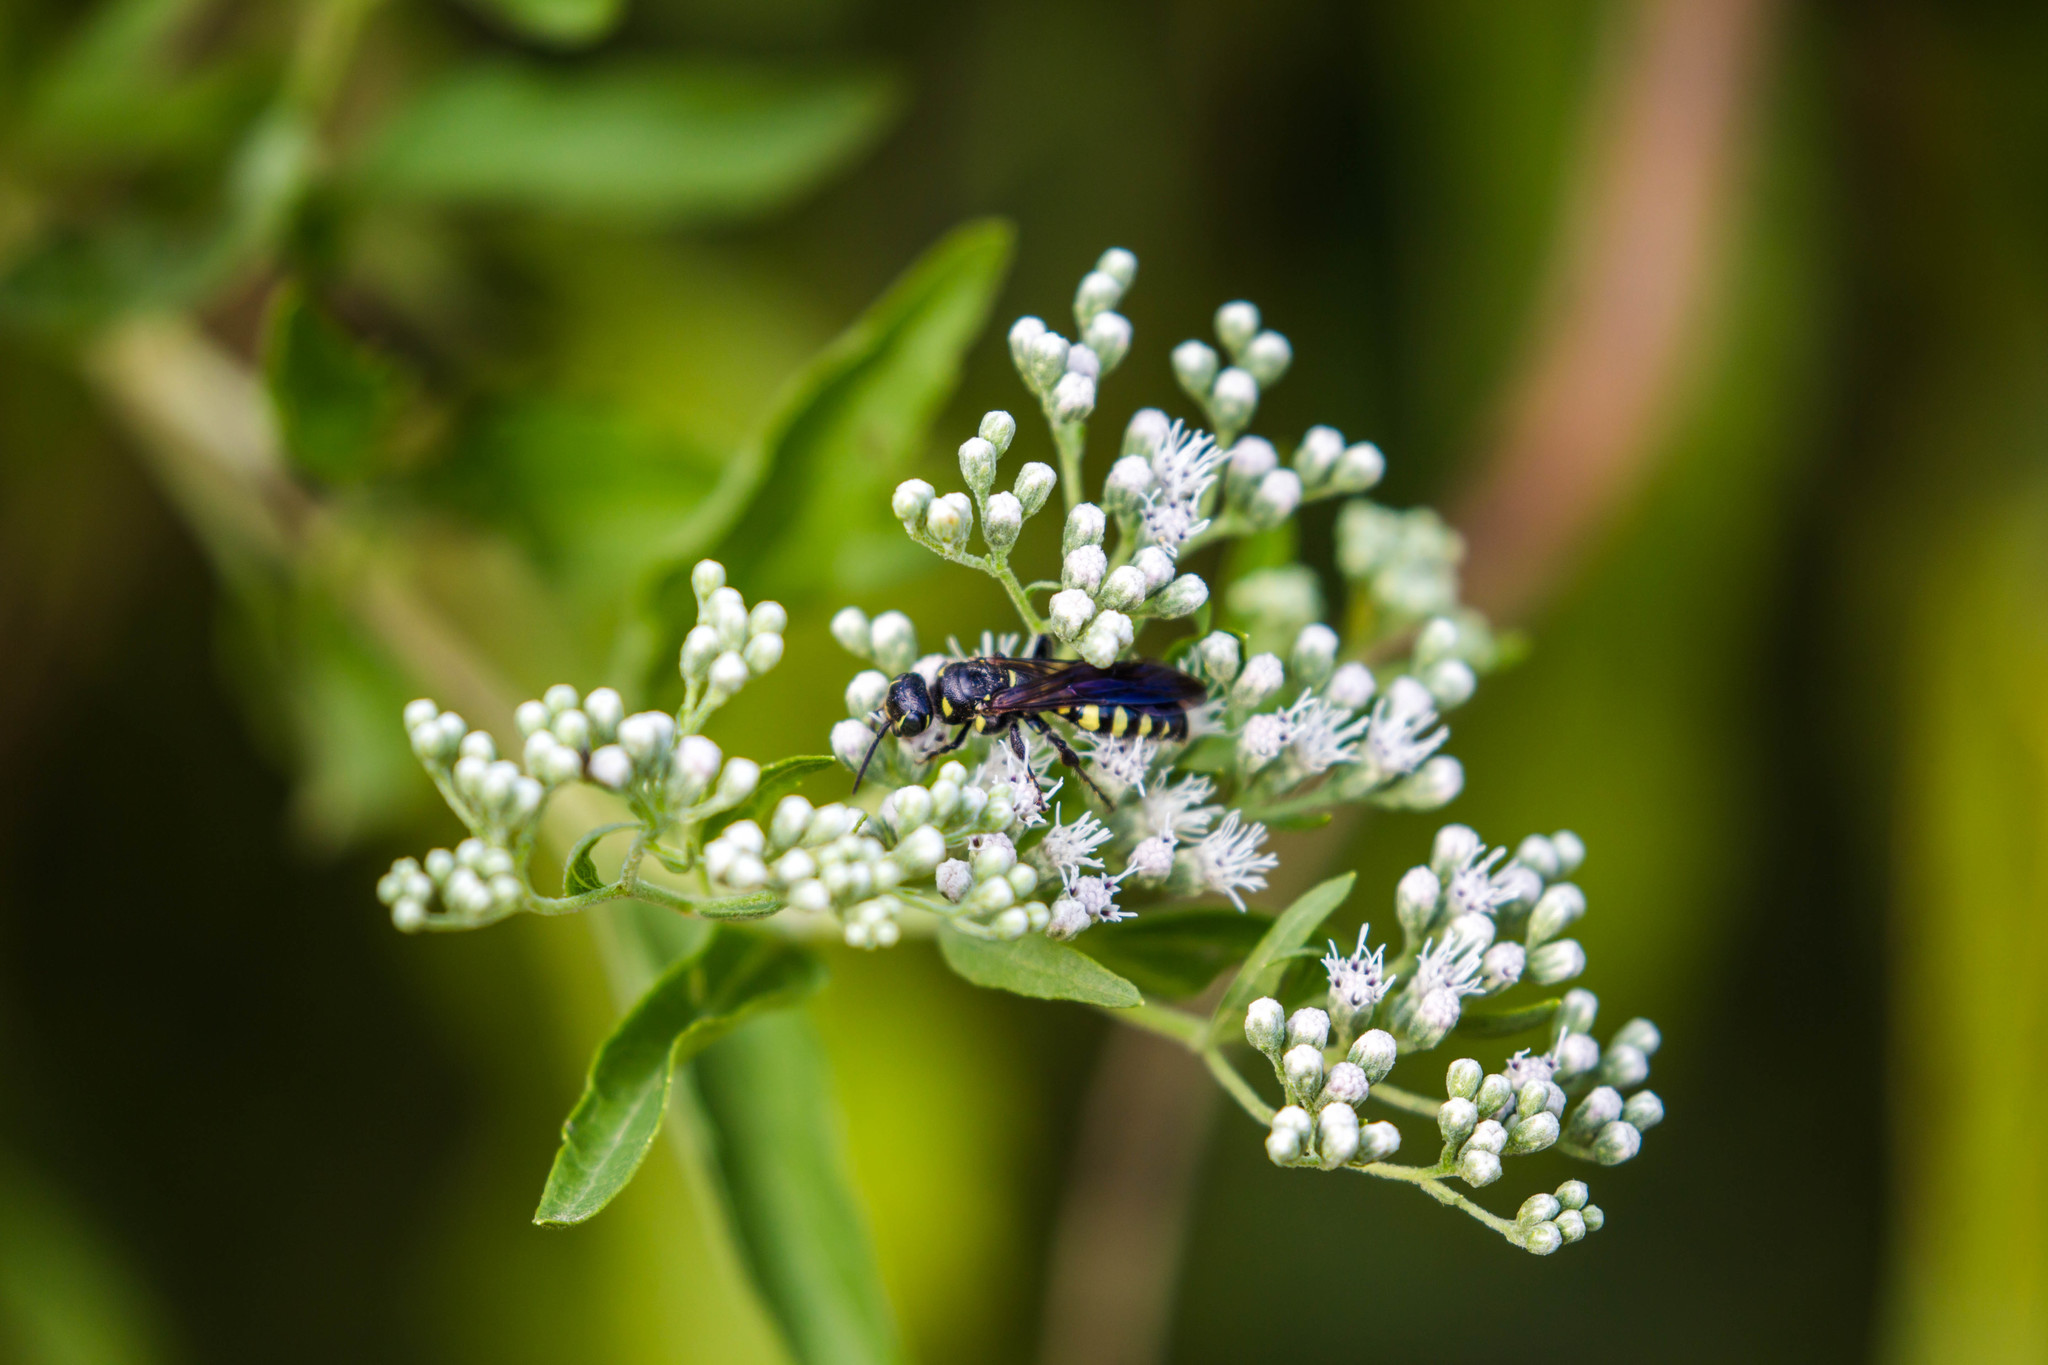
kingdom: Animalia
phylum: Arthropoda
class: Insecta
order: Hymenoptera
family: Tiphiidae
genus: Myzinum
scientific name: Myzinum obscurum
